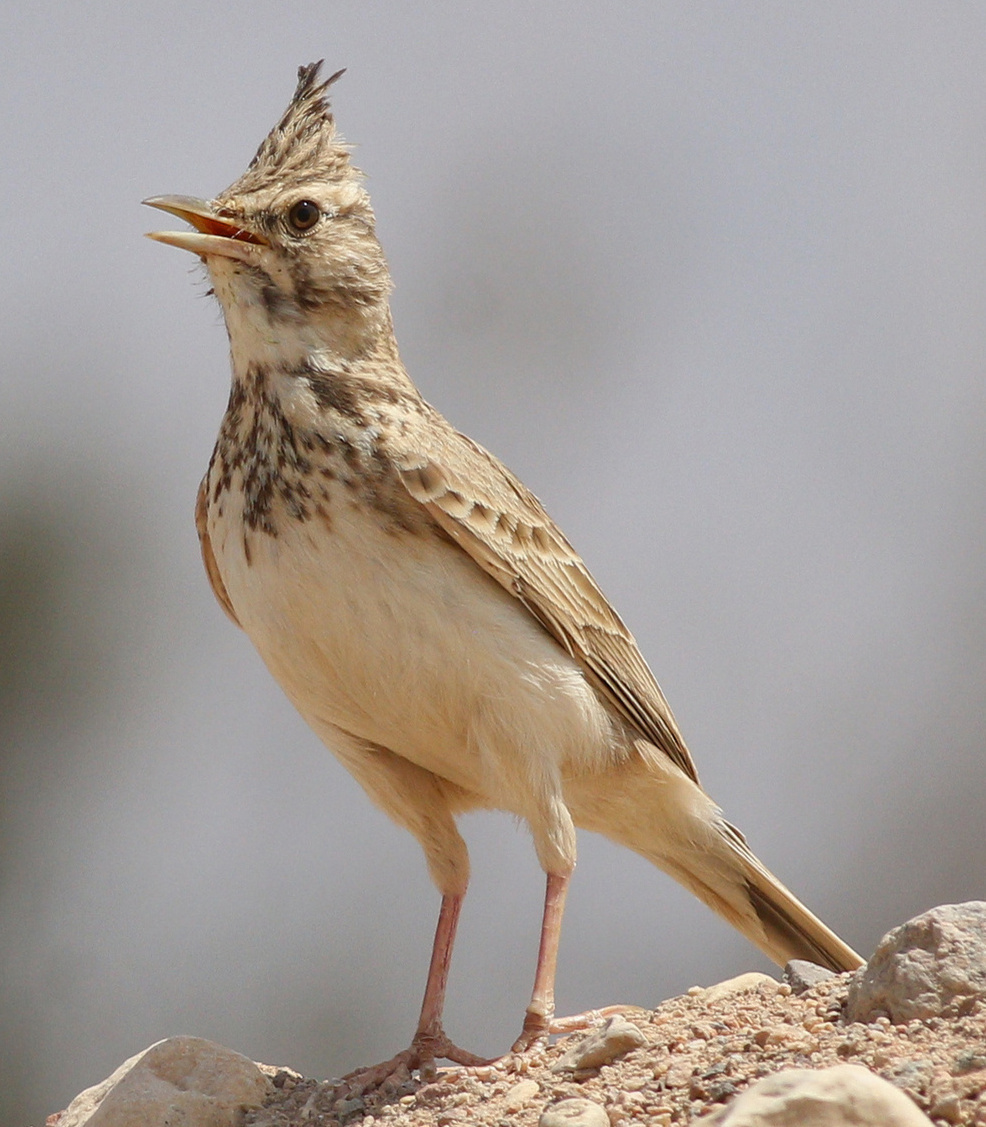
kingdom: Animalia
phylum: Chordata
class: Aves
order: Passeriformes
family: Alaudidae
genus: Galerida
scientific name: Galerida cristata
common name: Crested lark
